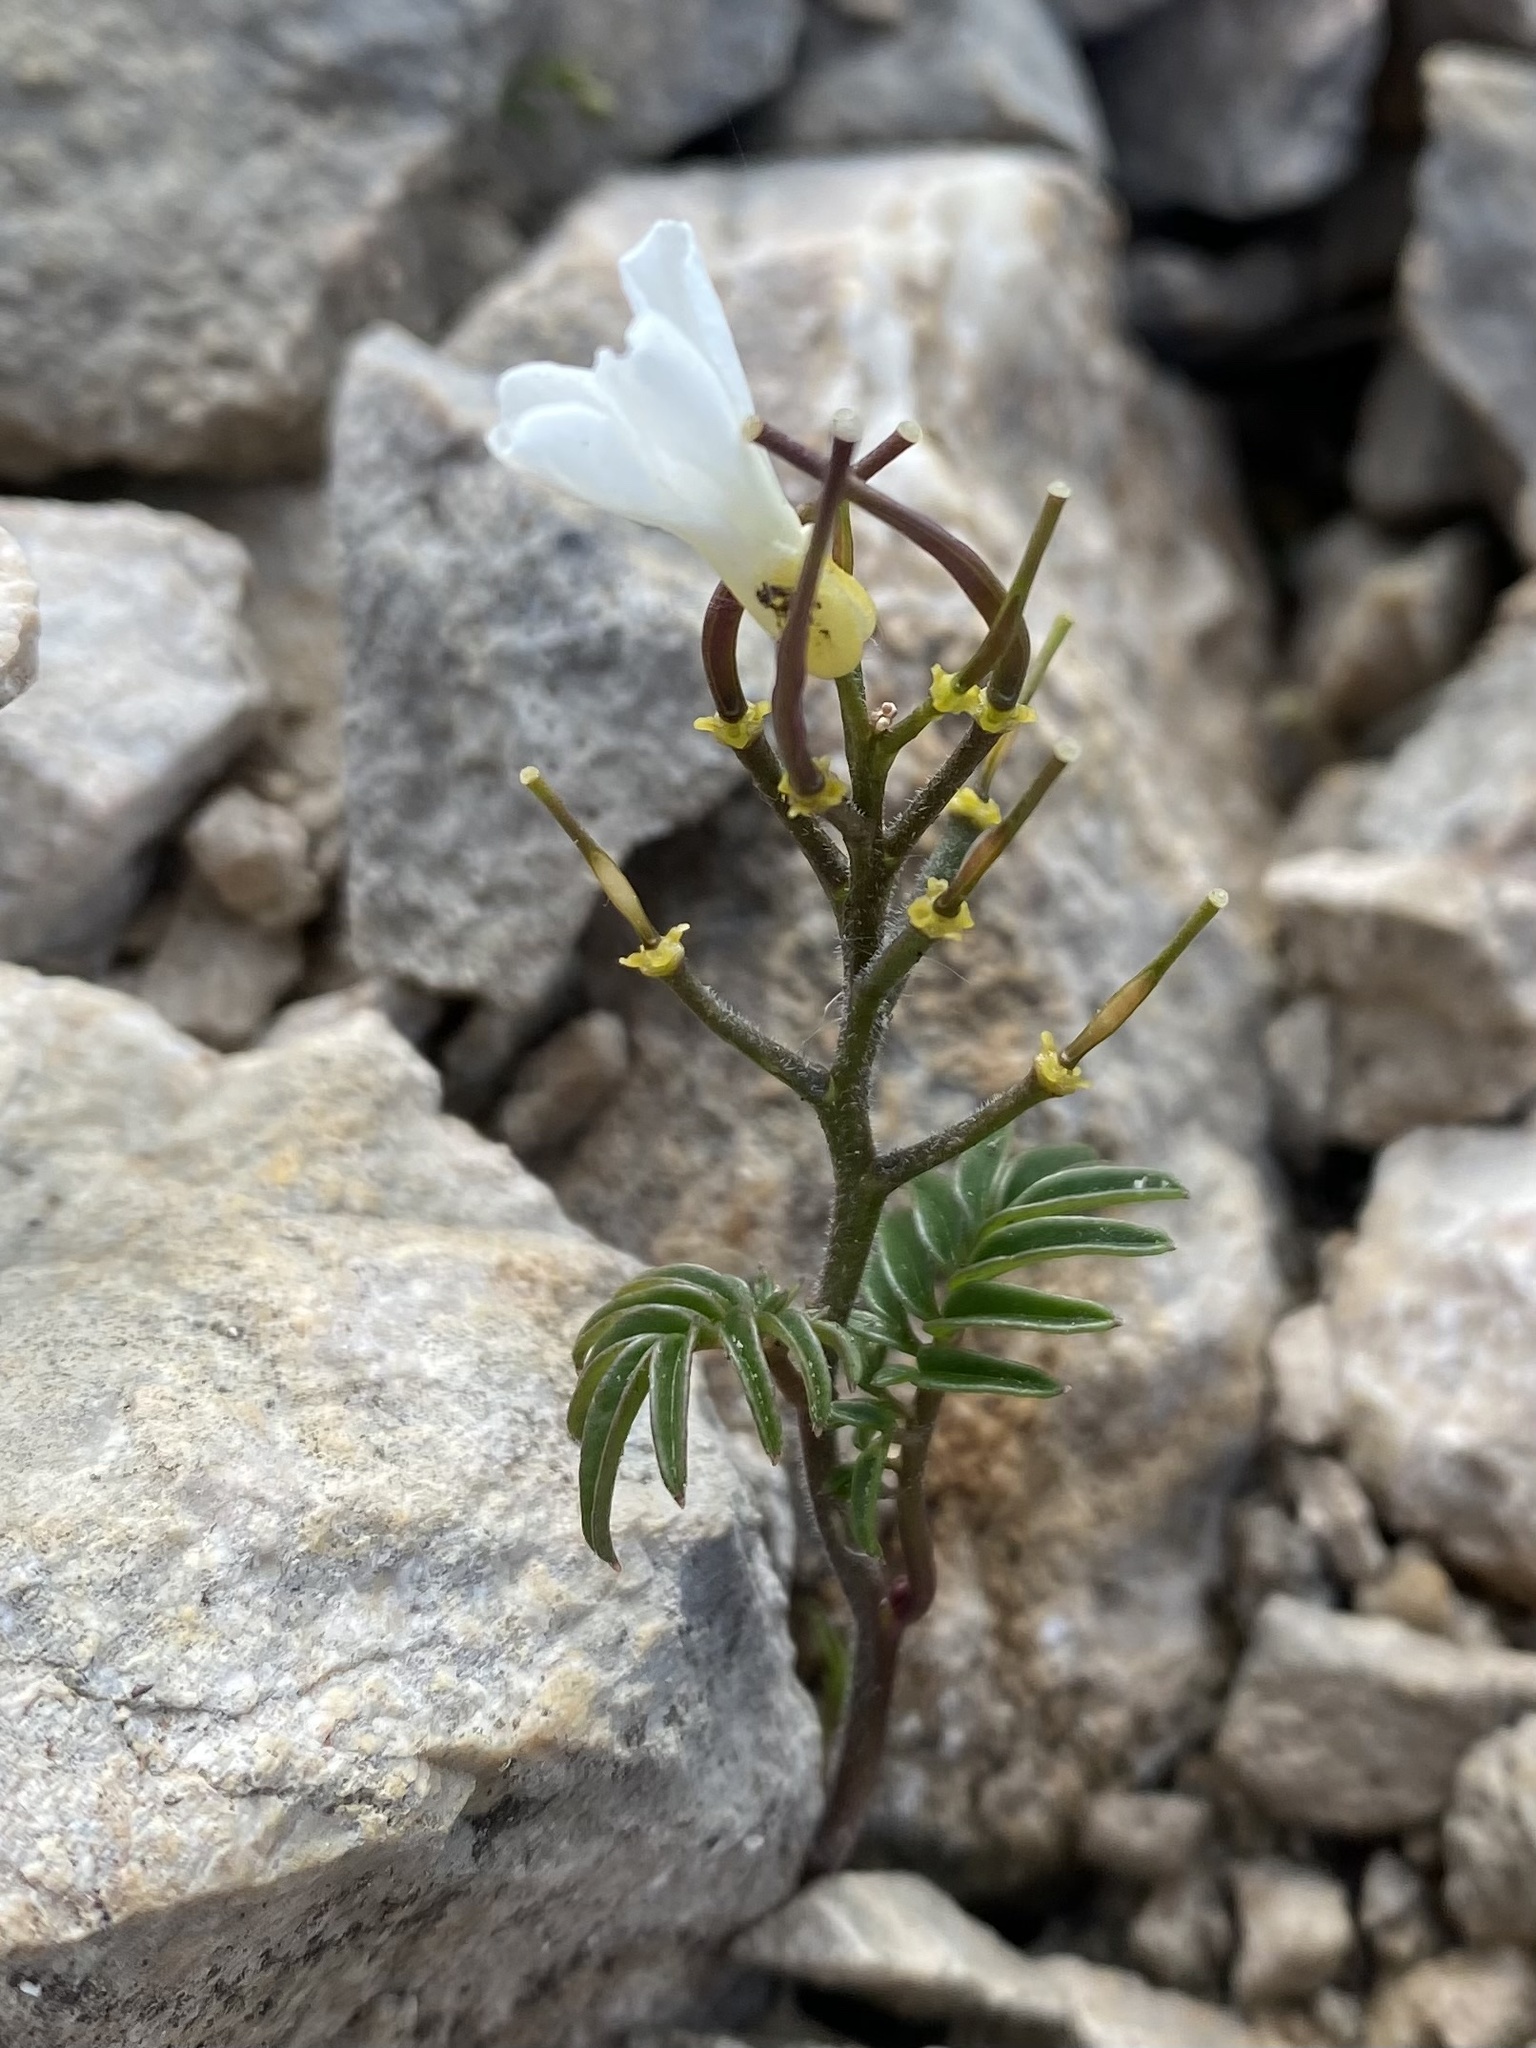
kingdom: Plantae
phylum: Tracheophyta
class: Magnoliopsida
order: Brassicales
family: Brassicaceae
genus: Cardamine
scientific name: Cardamine bipinnata
